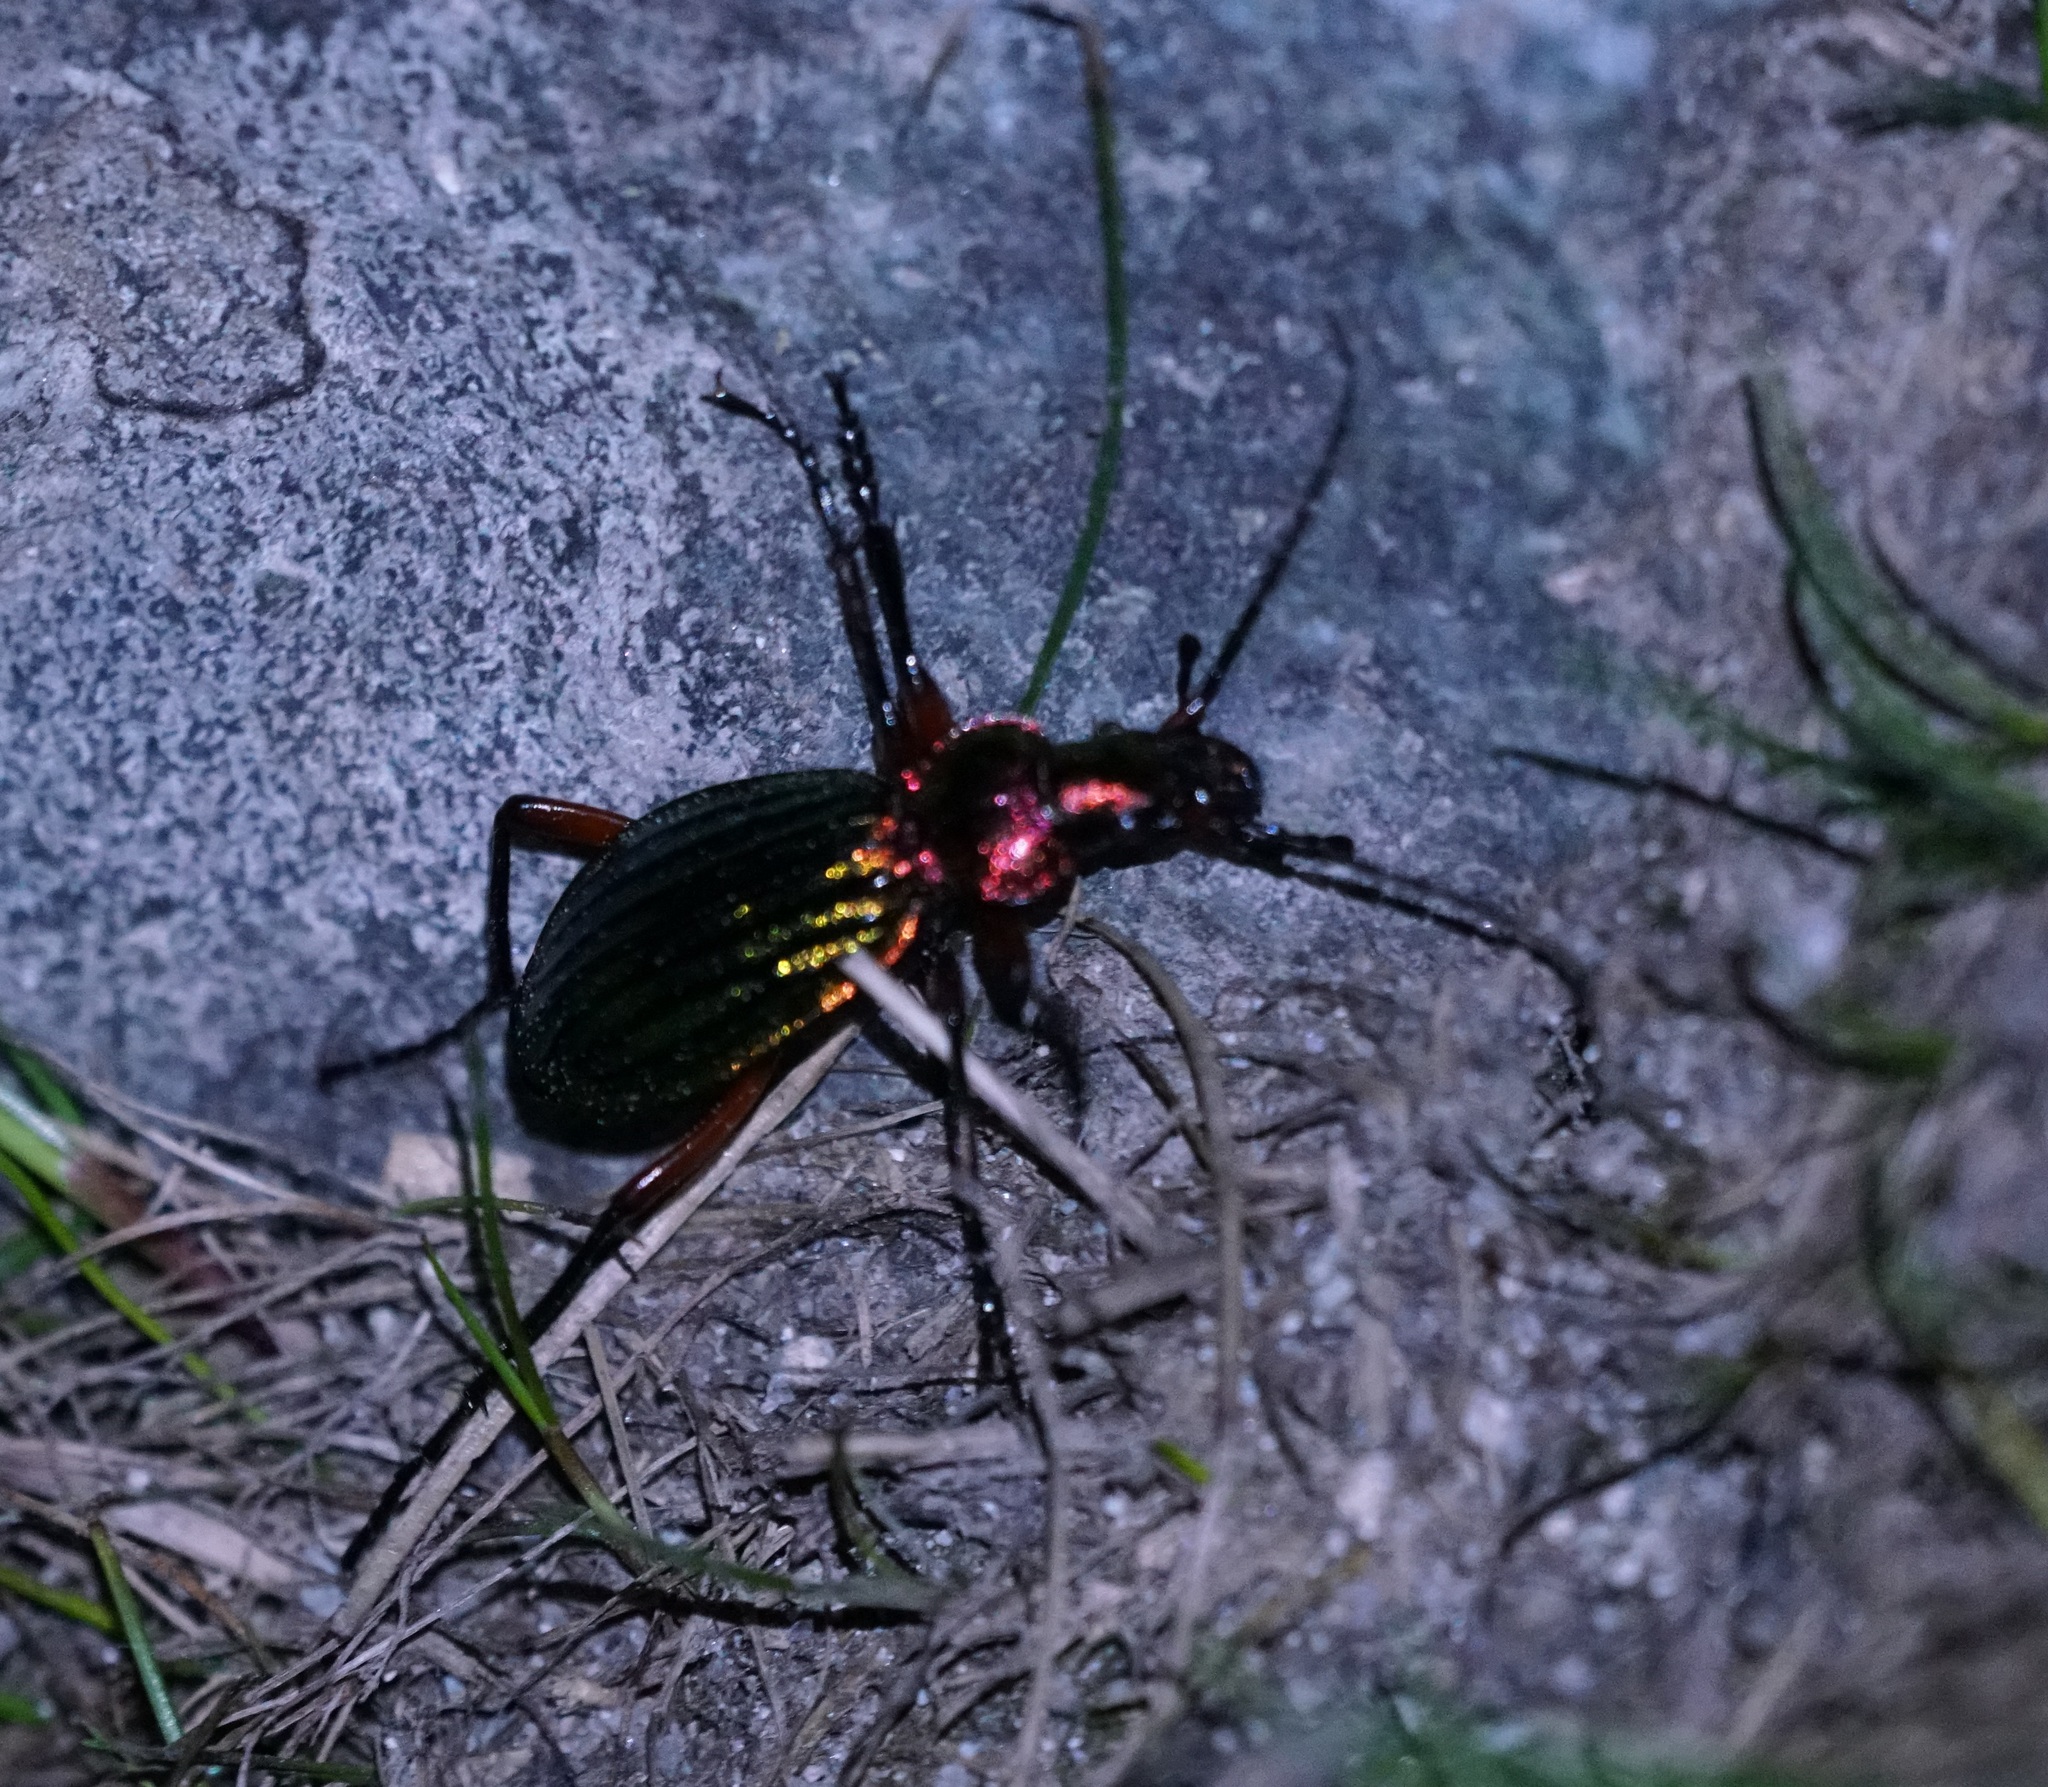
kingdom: Animalia
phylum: Arthropoda
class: Insecta
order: Coleoptera
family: Carabidae
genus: Carabus
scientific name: Carabus auronitens
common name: Carabus auronitens
